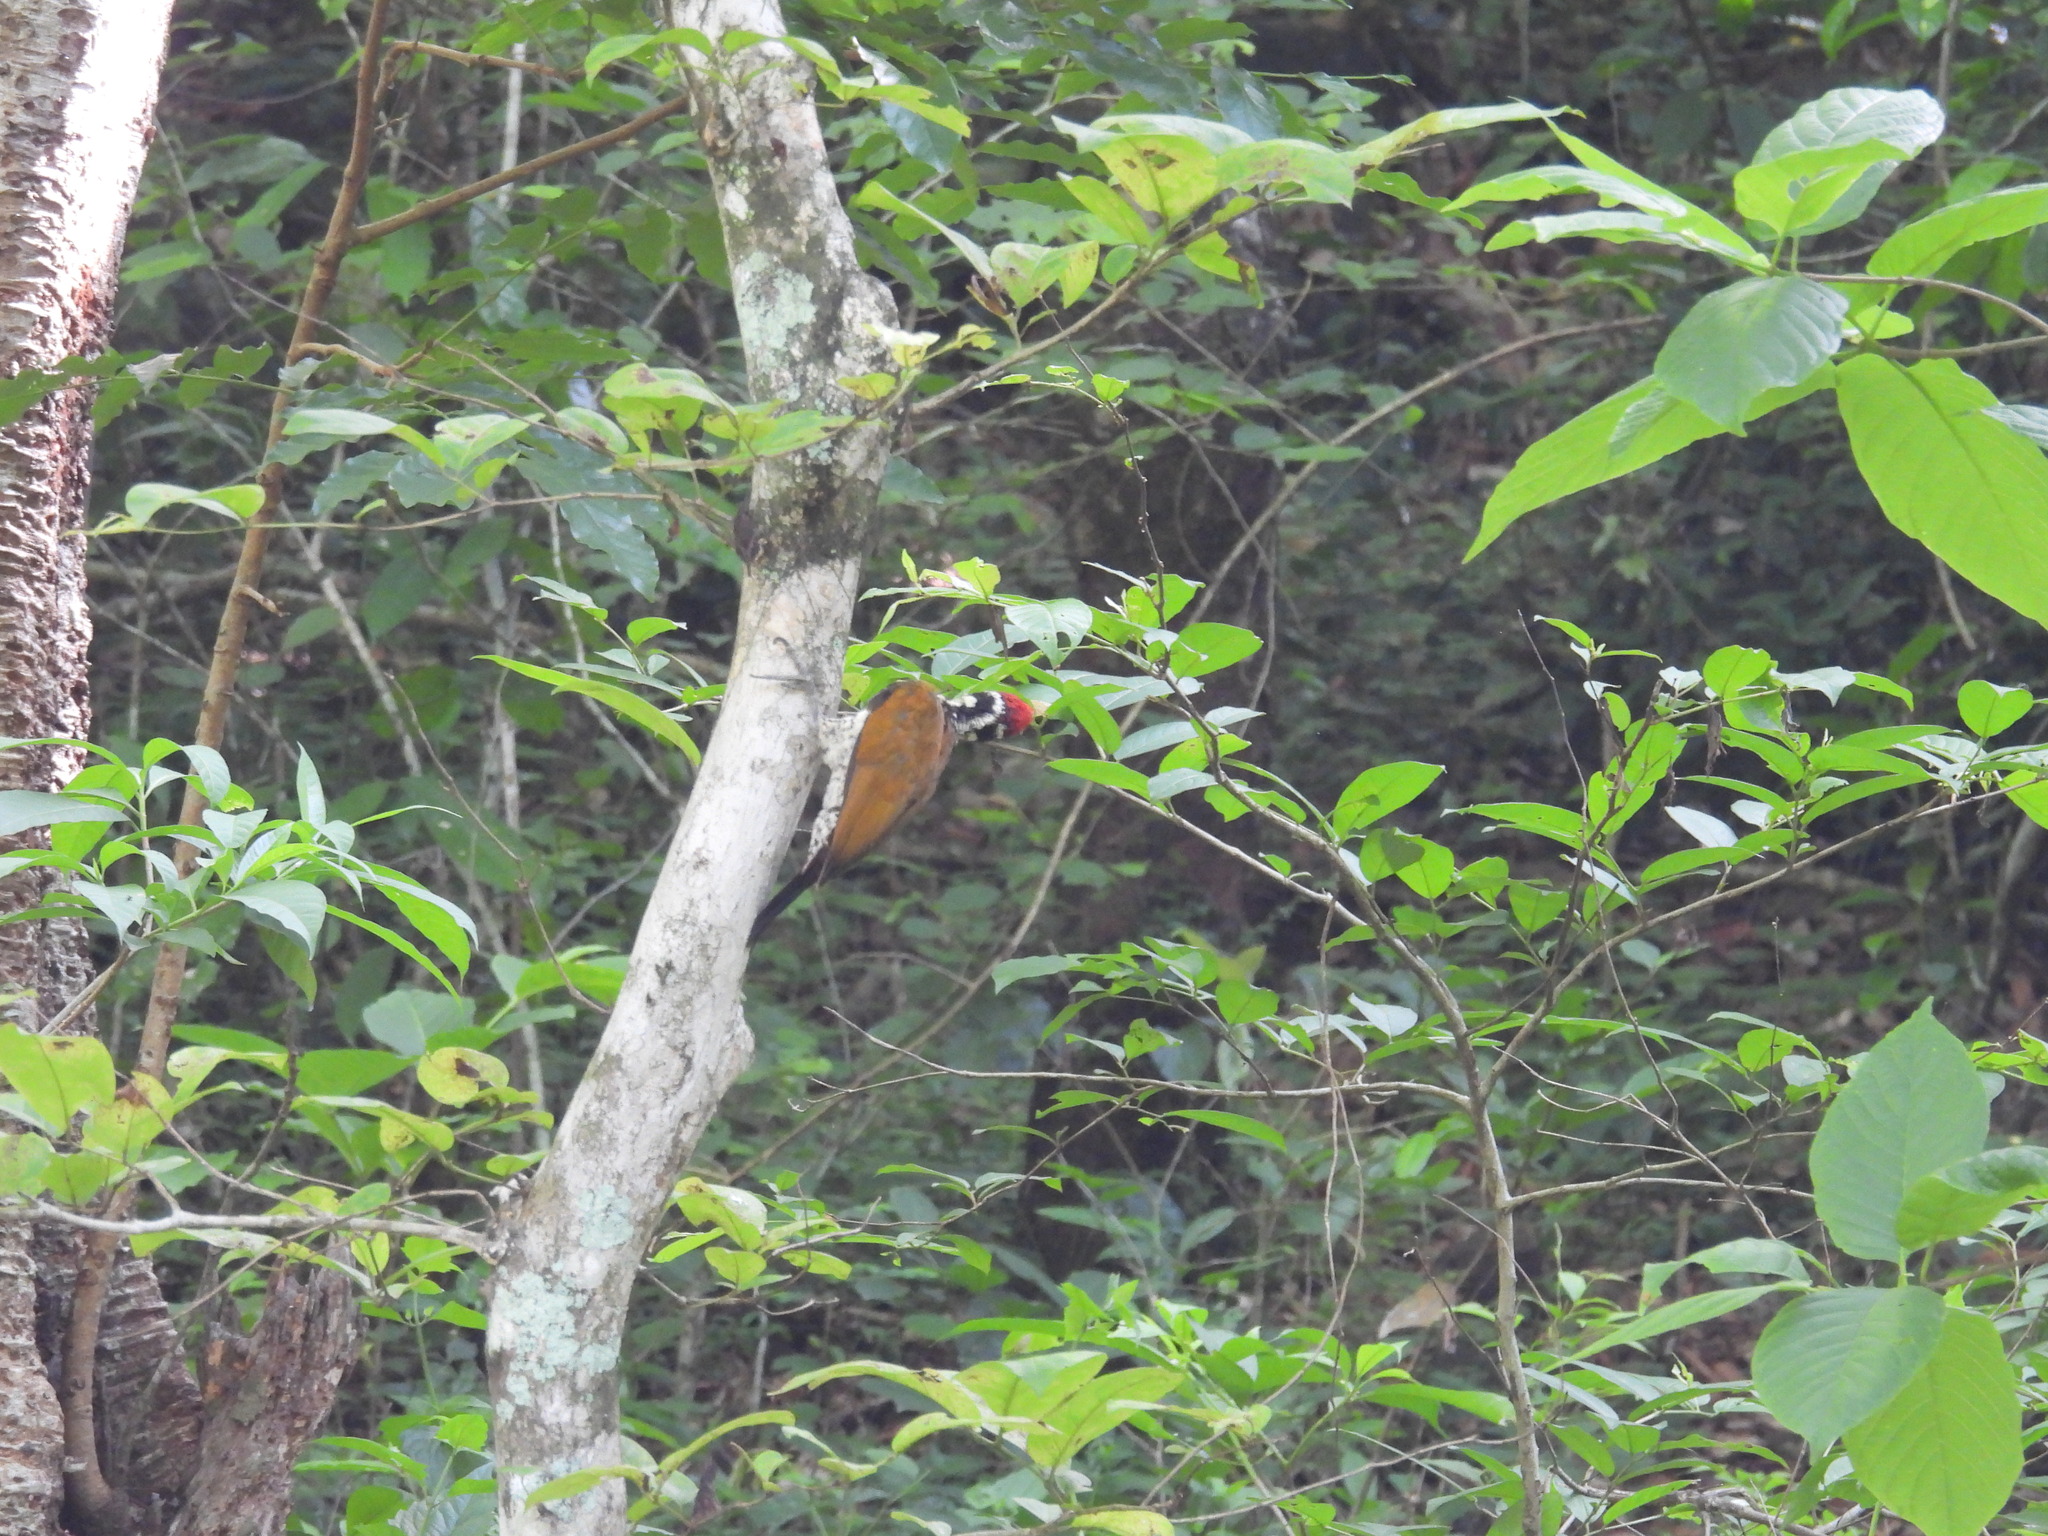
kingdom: Animalia
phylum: Chordata
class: Aves
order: Piciformes
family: Picidae
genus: Chrysocolaptes
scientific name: Chrysocolaptes socialis
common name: Malabar flameback
